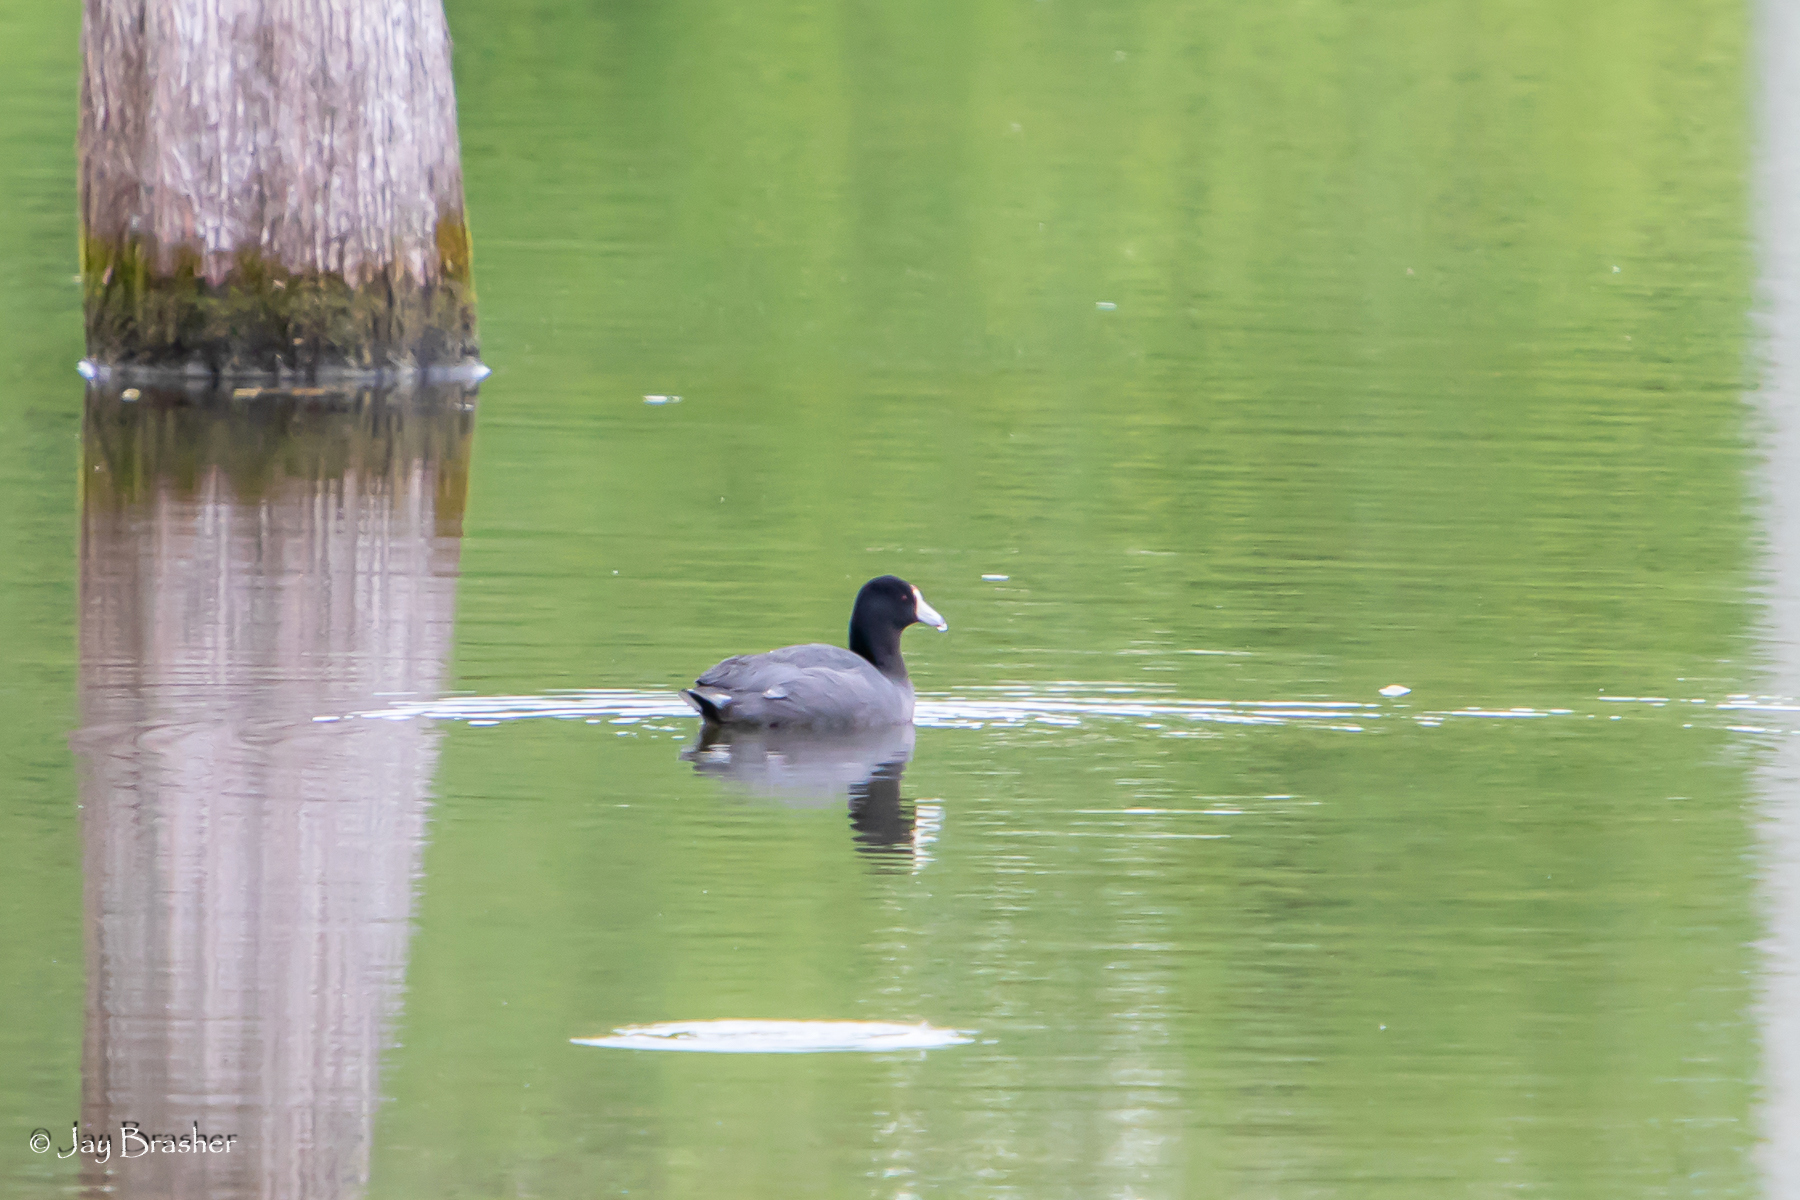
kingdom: Animalia
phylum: Chordata
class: Aves
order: Gruiformes
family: Rallidae
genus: Fulica
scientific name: Fulica americana
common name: American coot
